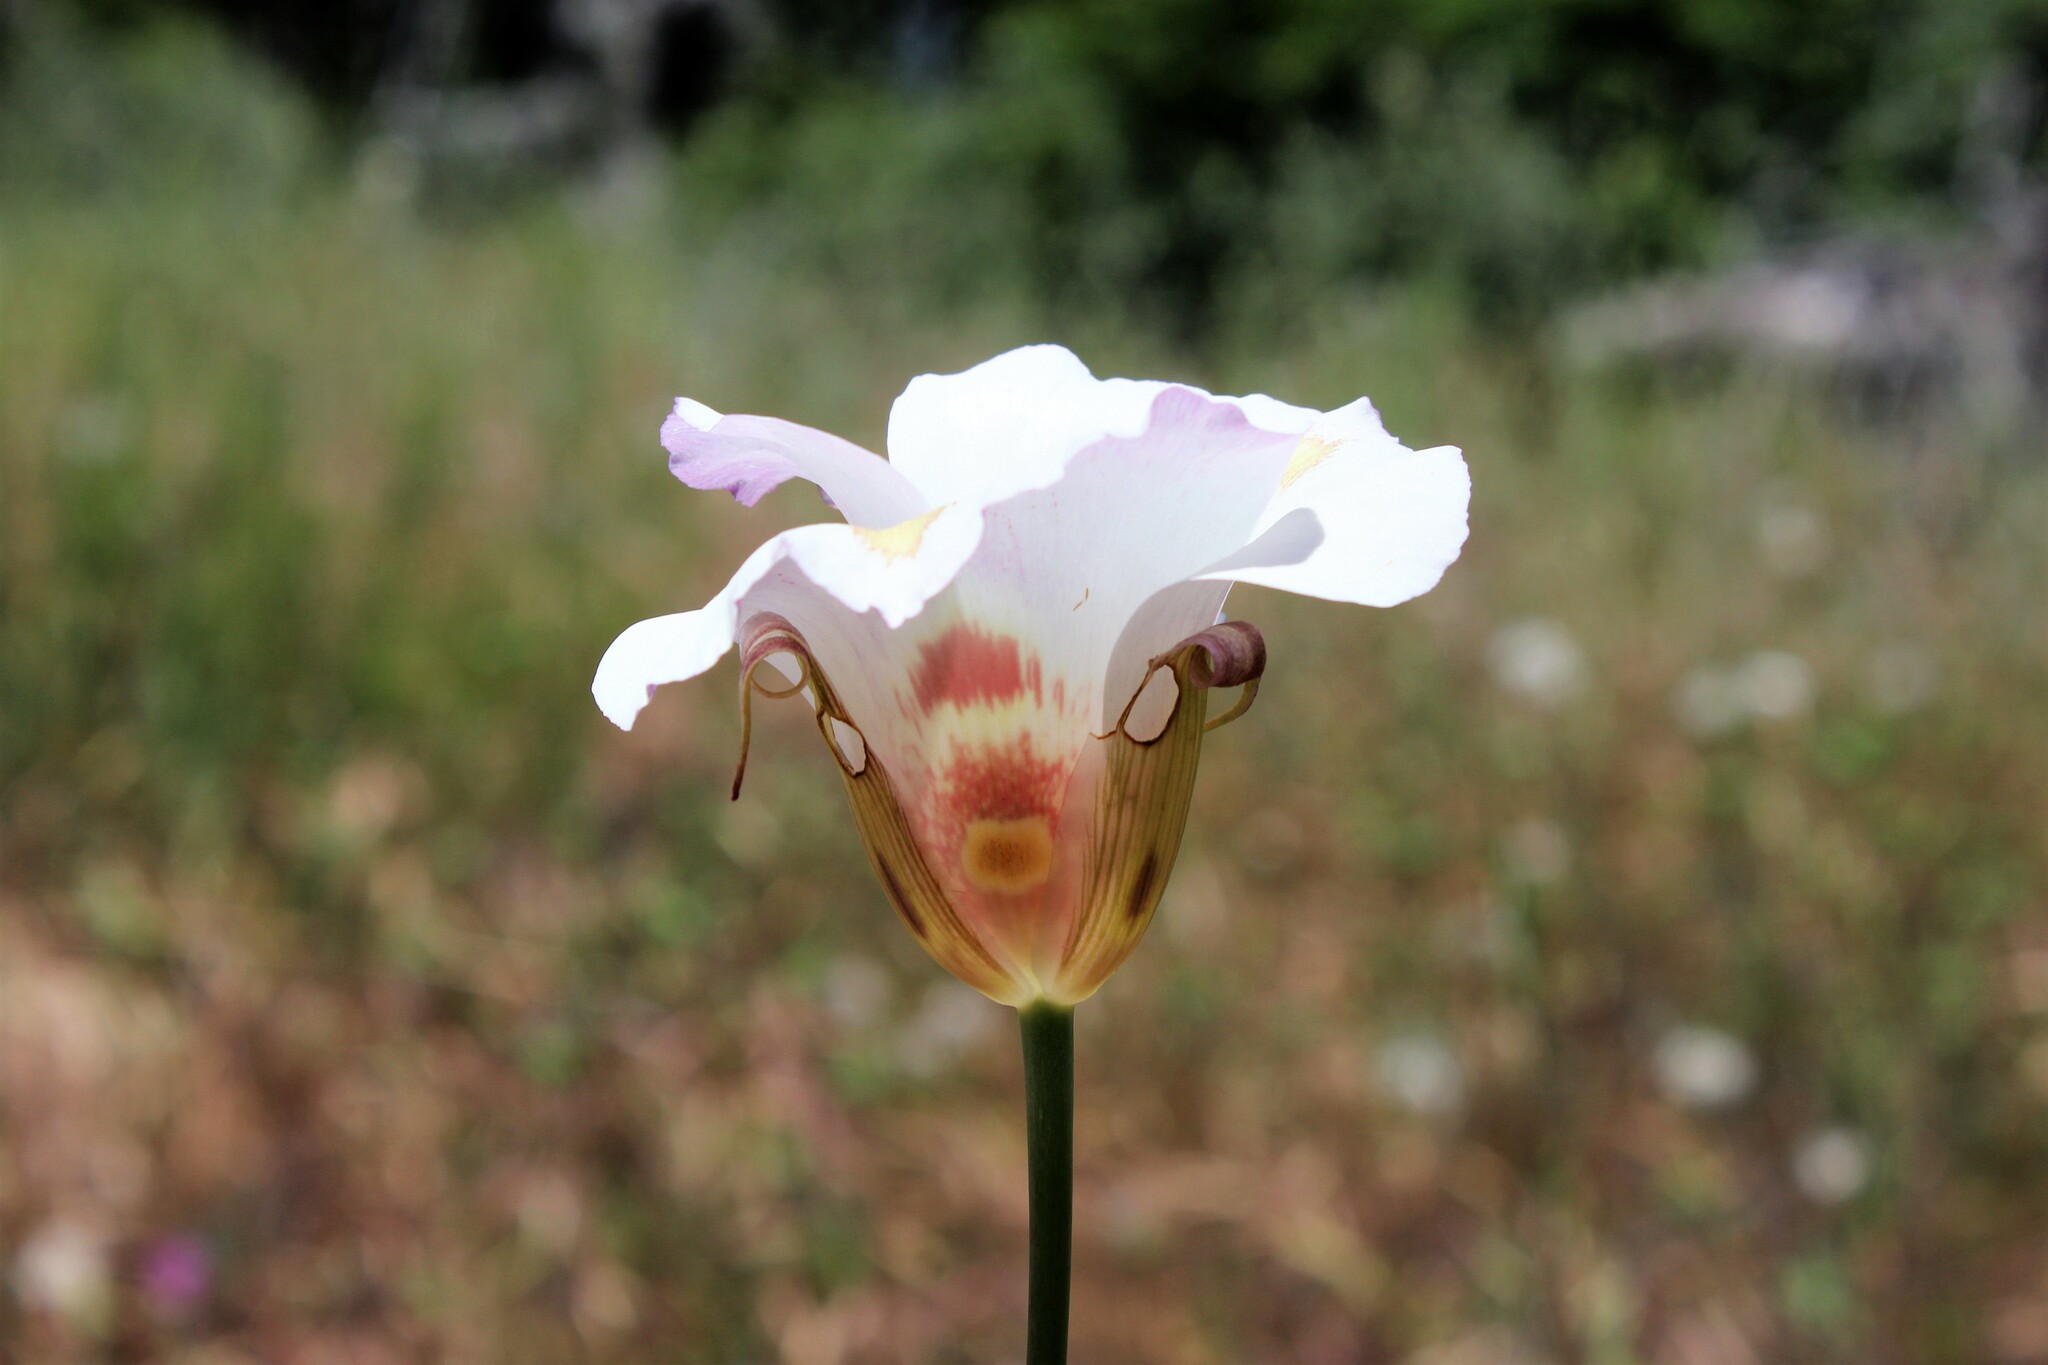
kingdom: Plantae
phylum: Tracheophyta
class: Liliopsida
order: Liliales
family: Liliaceae
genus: Calochortus
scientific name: Calochortus venustus
